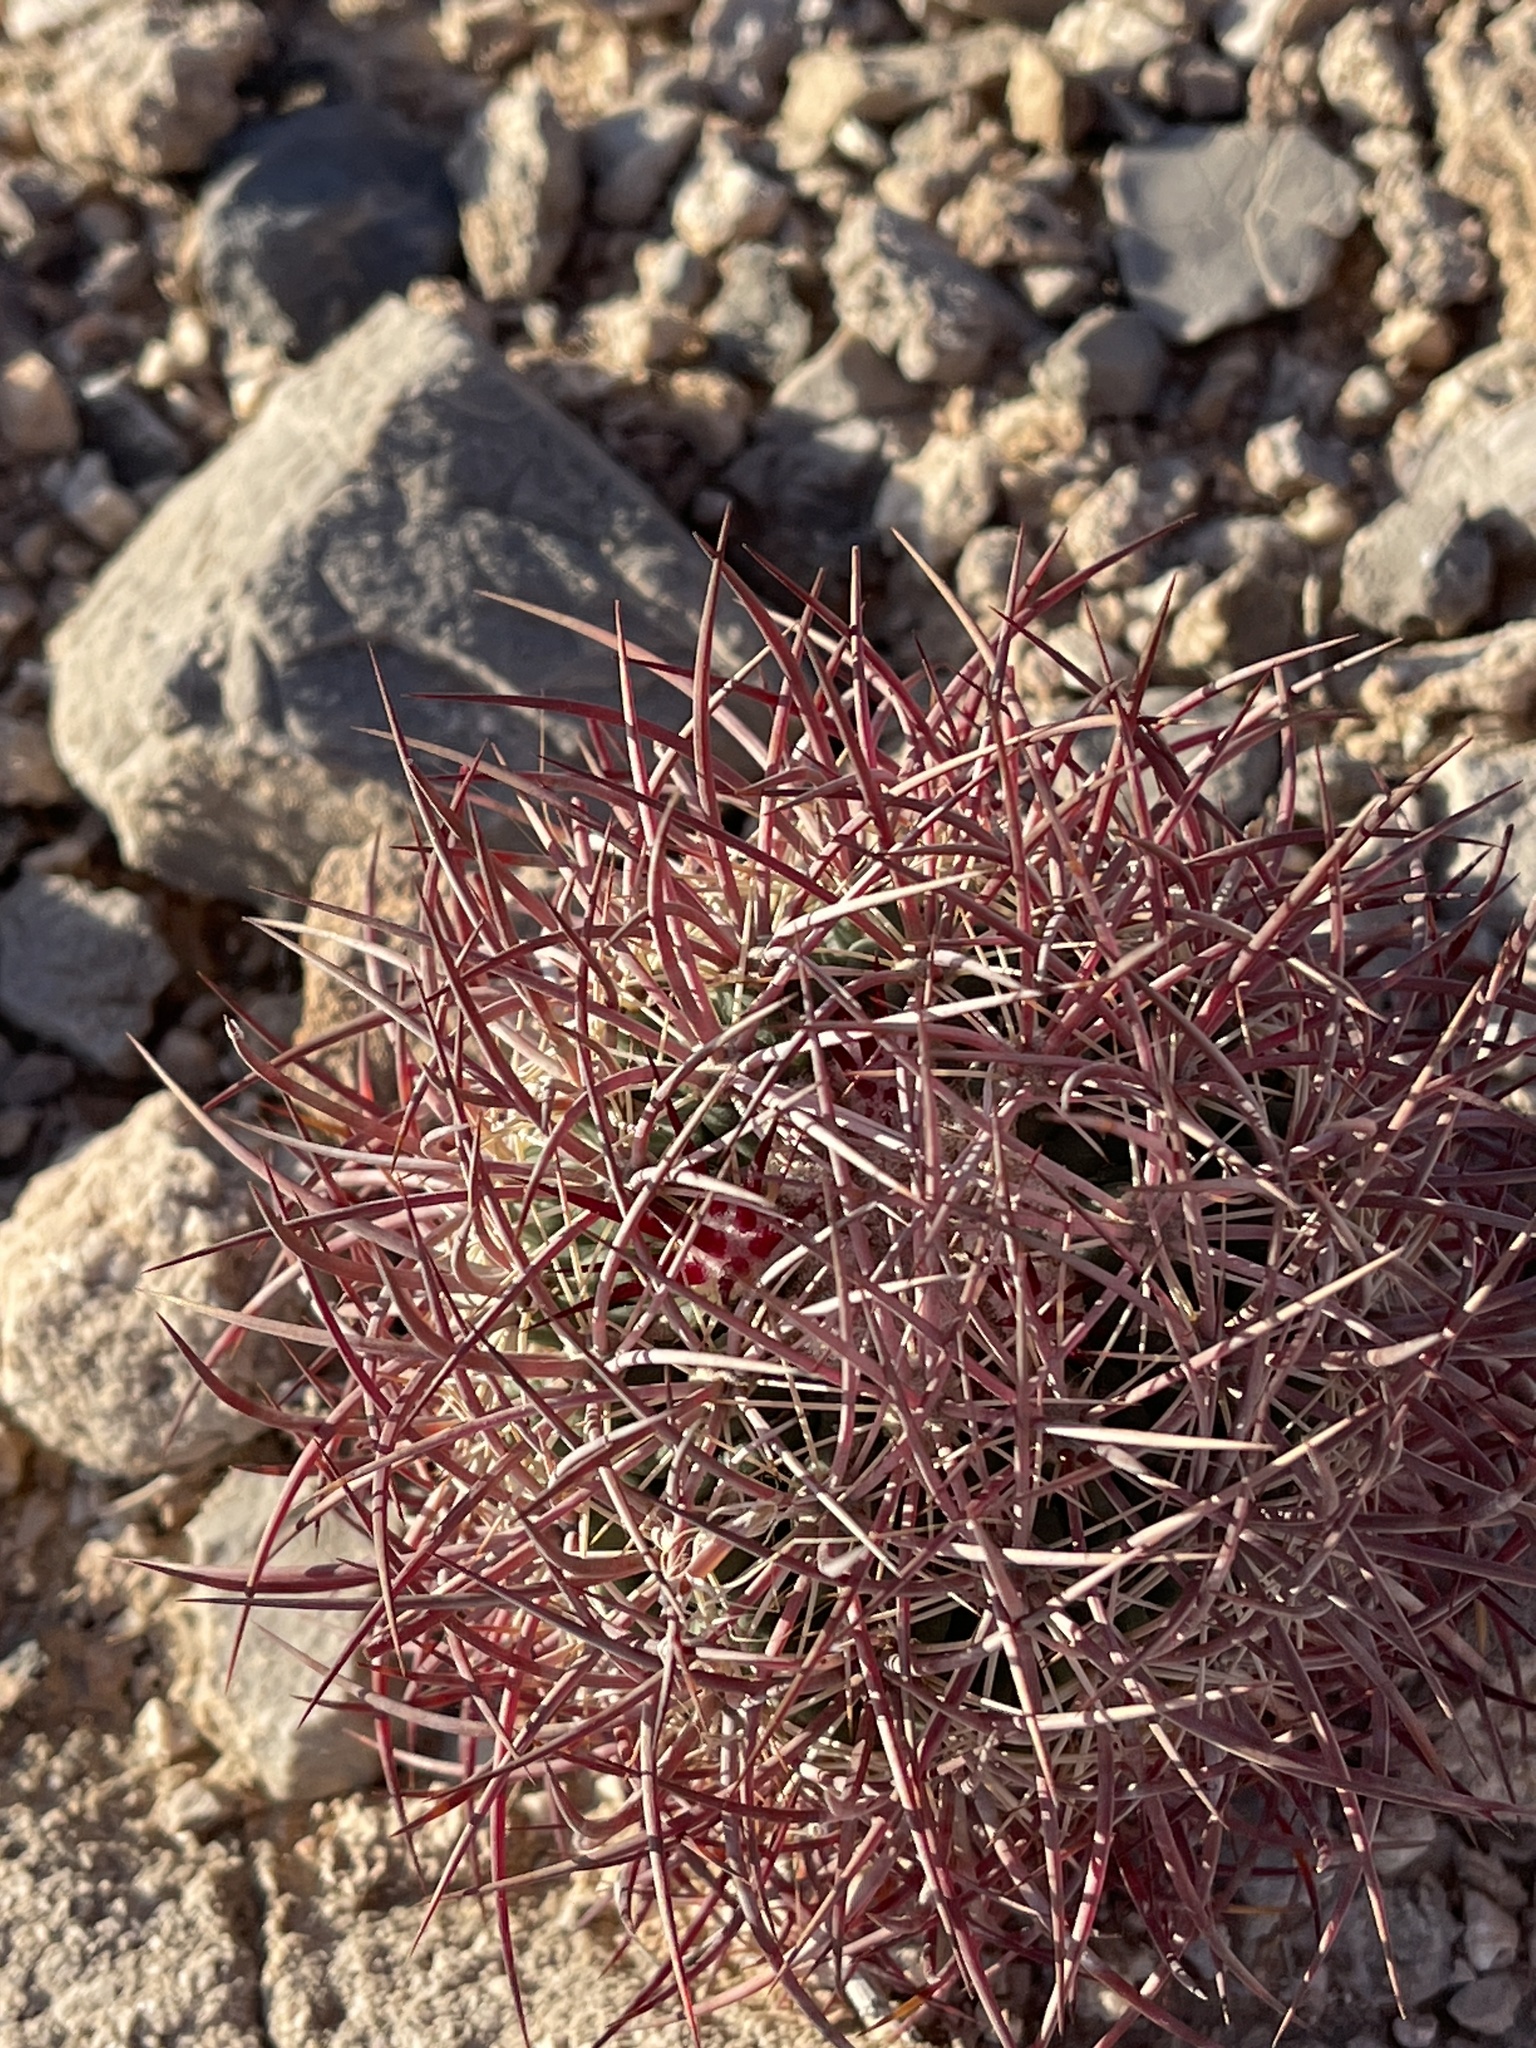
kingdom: Plantae
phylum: Tracheophyta
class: Magnoliopsida
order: Caryophyllales
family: Cactaceae
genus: Sclerocactus
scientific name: Sclerocactus johnsonii
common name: Eight-spine fishhook cactus
